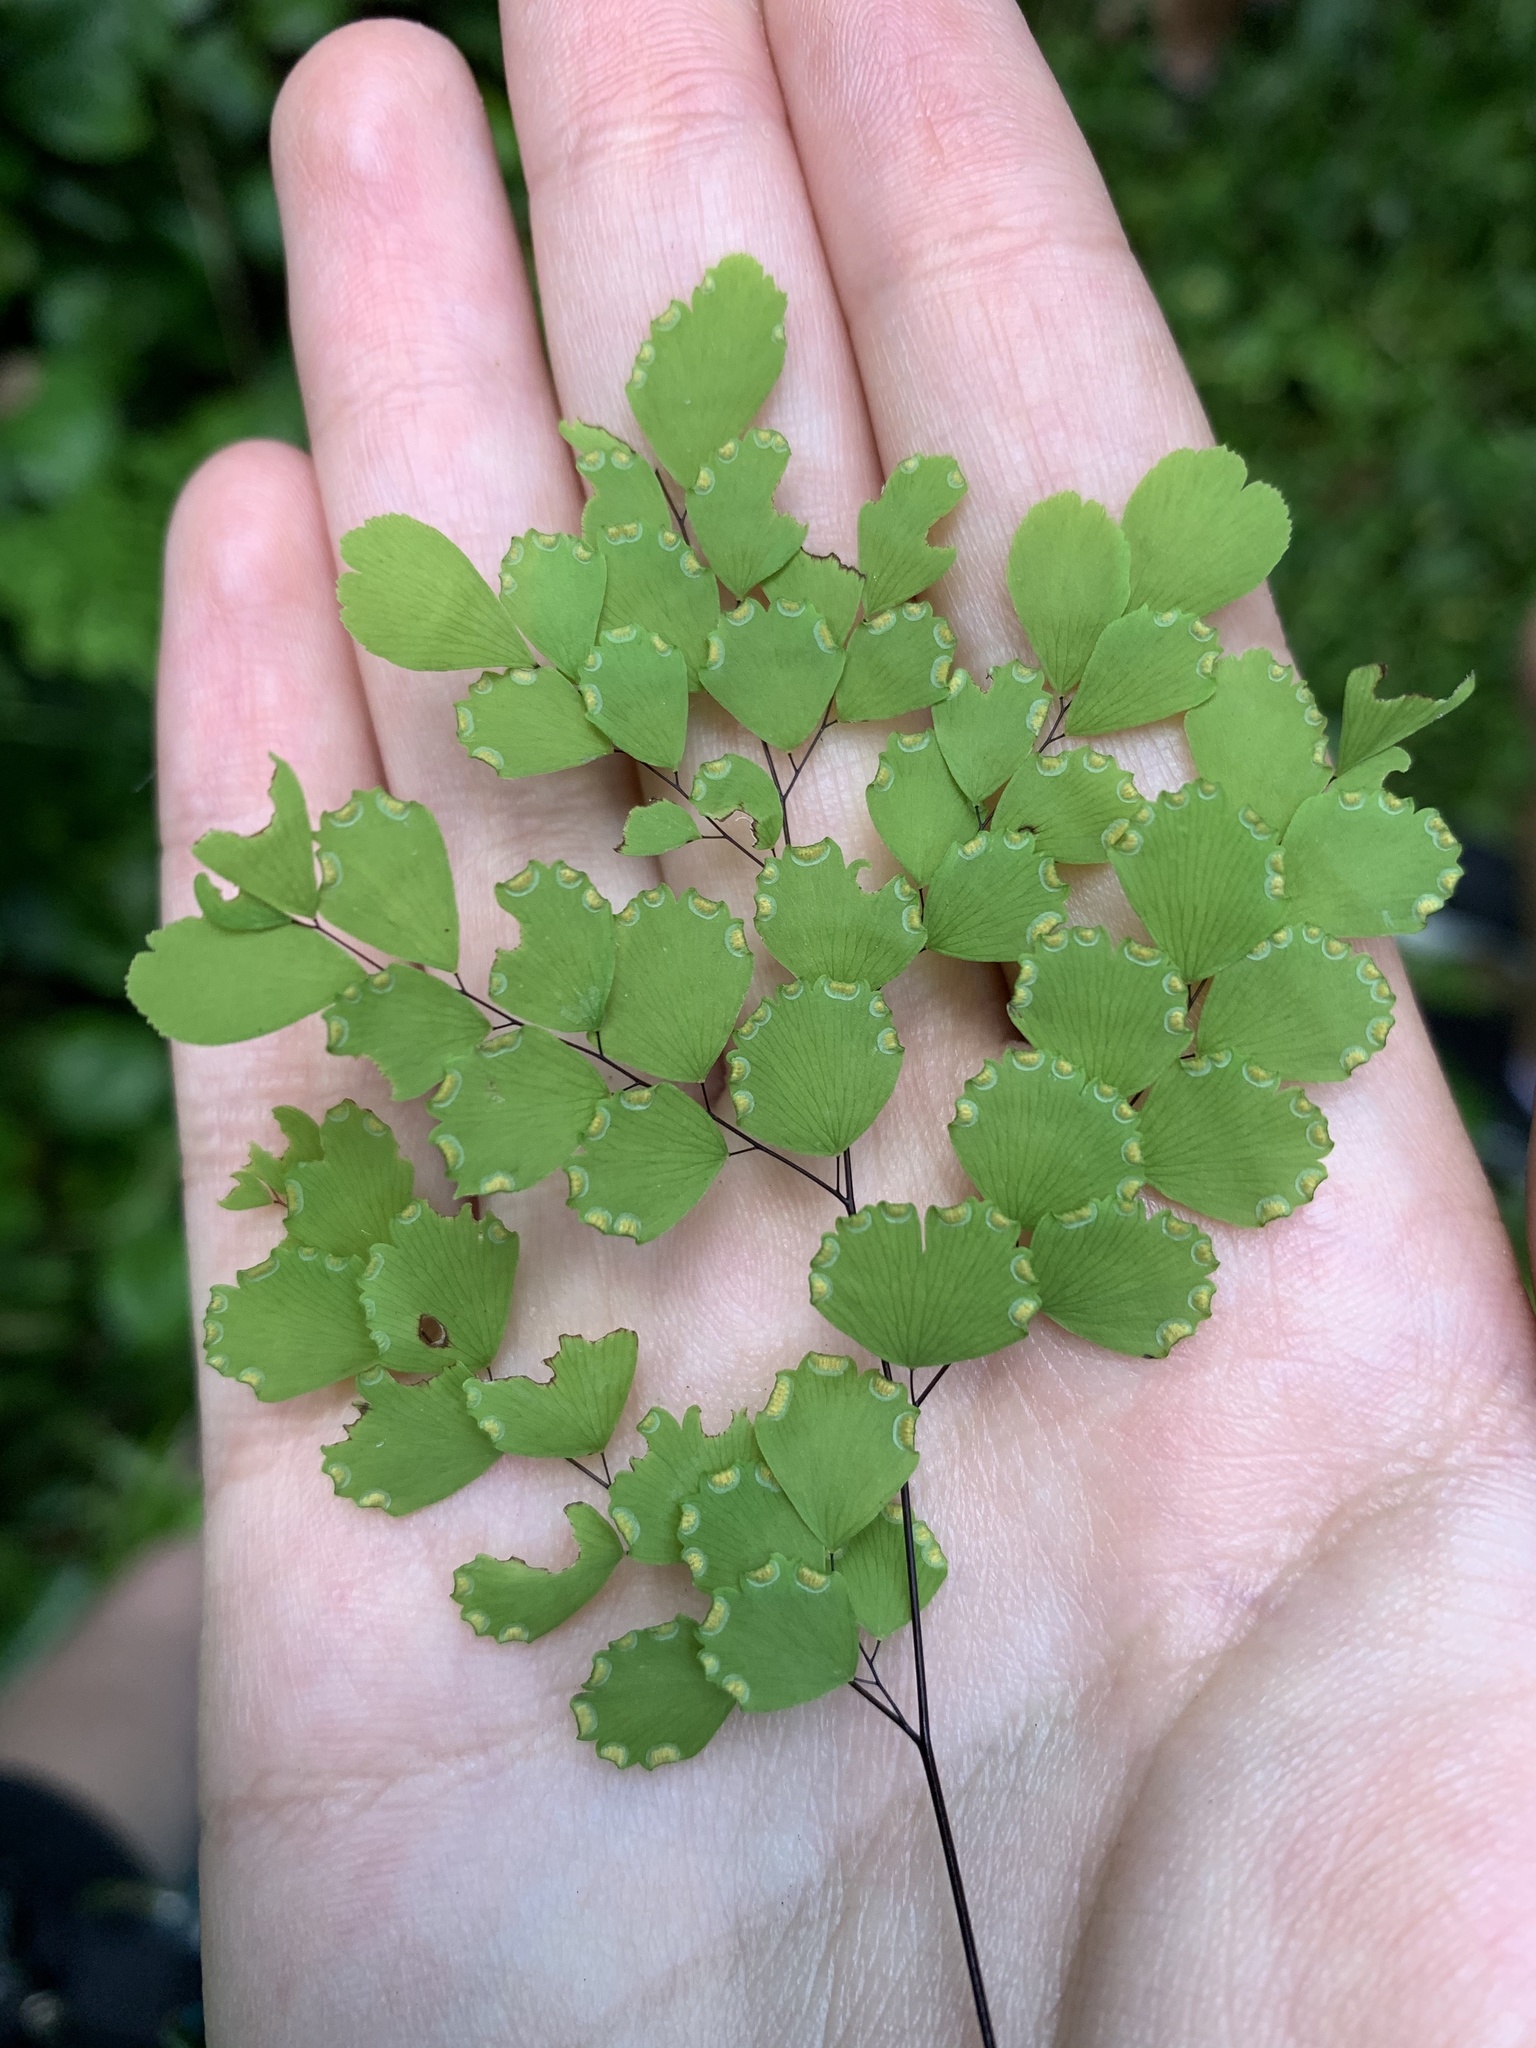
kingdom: Plantae
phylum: Tracheophyta
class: Polypodiopsida
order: Polypodiales
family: Pteridaceae
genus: Adiantum
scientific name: Adiantum fragile
